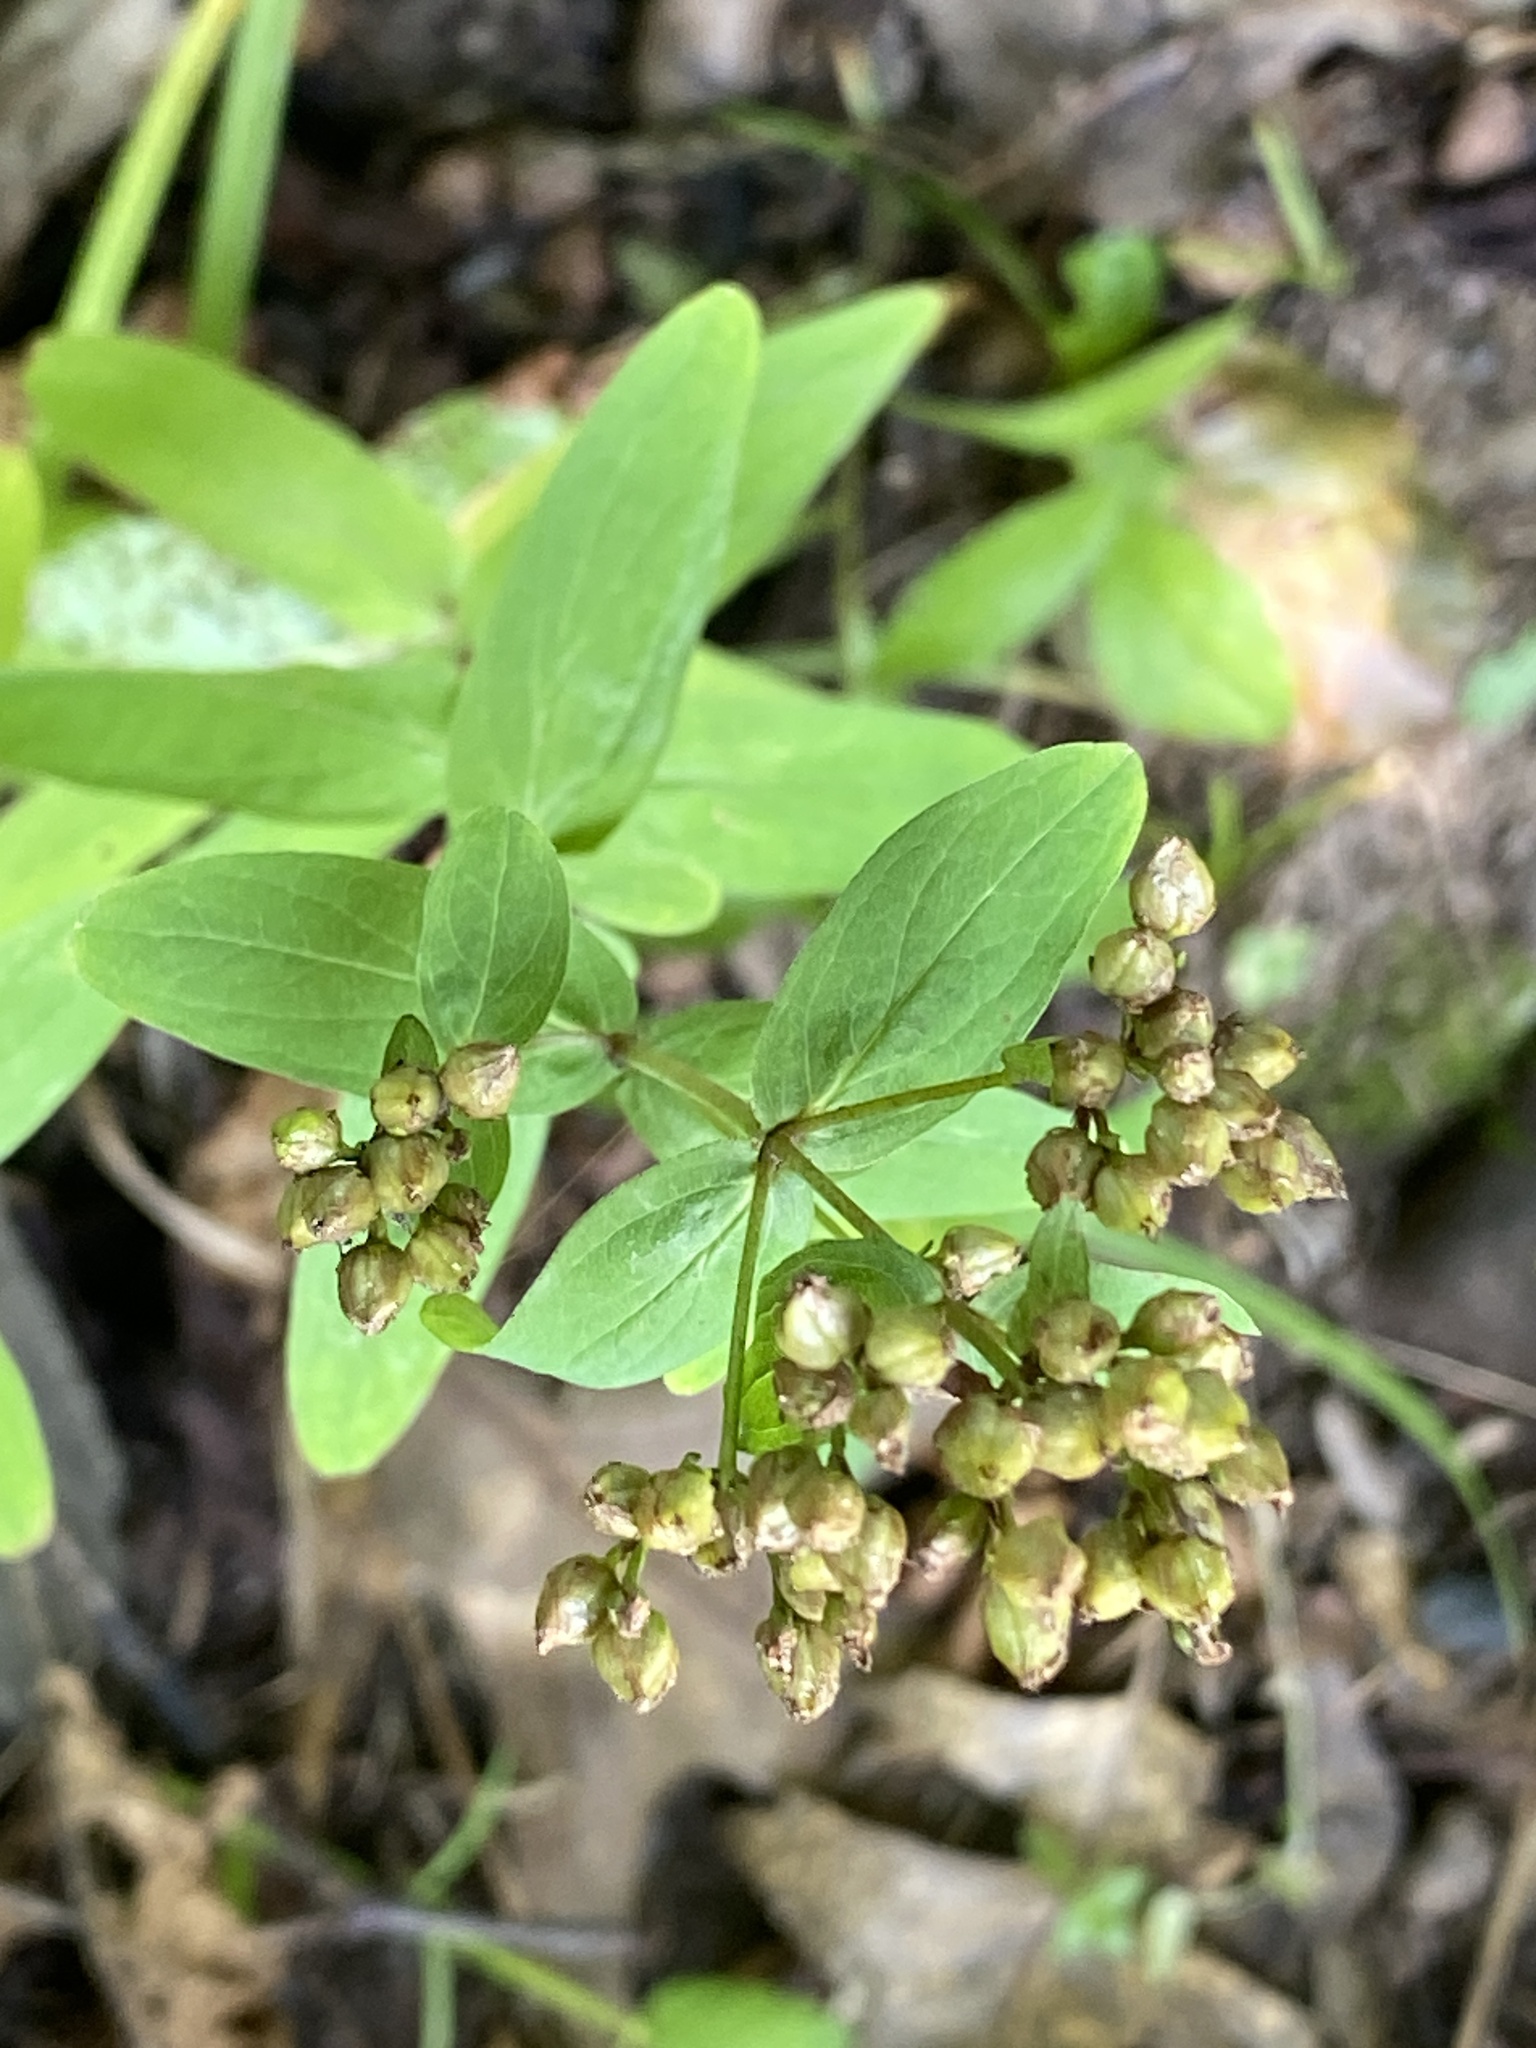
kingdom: Plantae
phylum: Tracheophyta
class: Magnoliopsida
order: Malpighiales
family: Hypericaceae
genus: Hypericum
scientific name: Hypericum punctatum
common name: Spotted st. john's-wort
